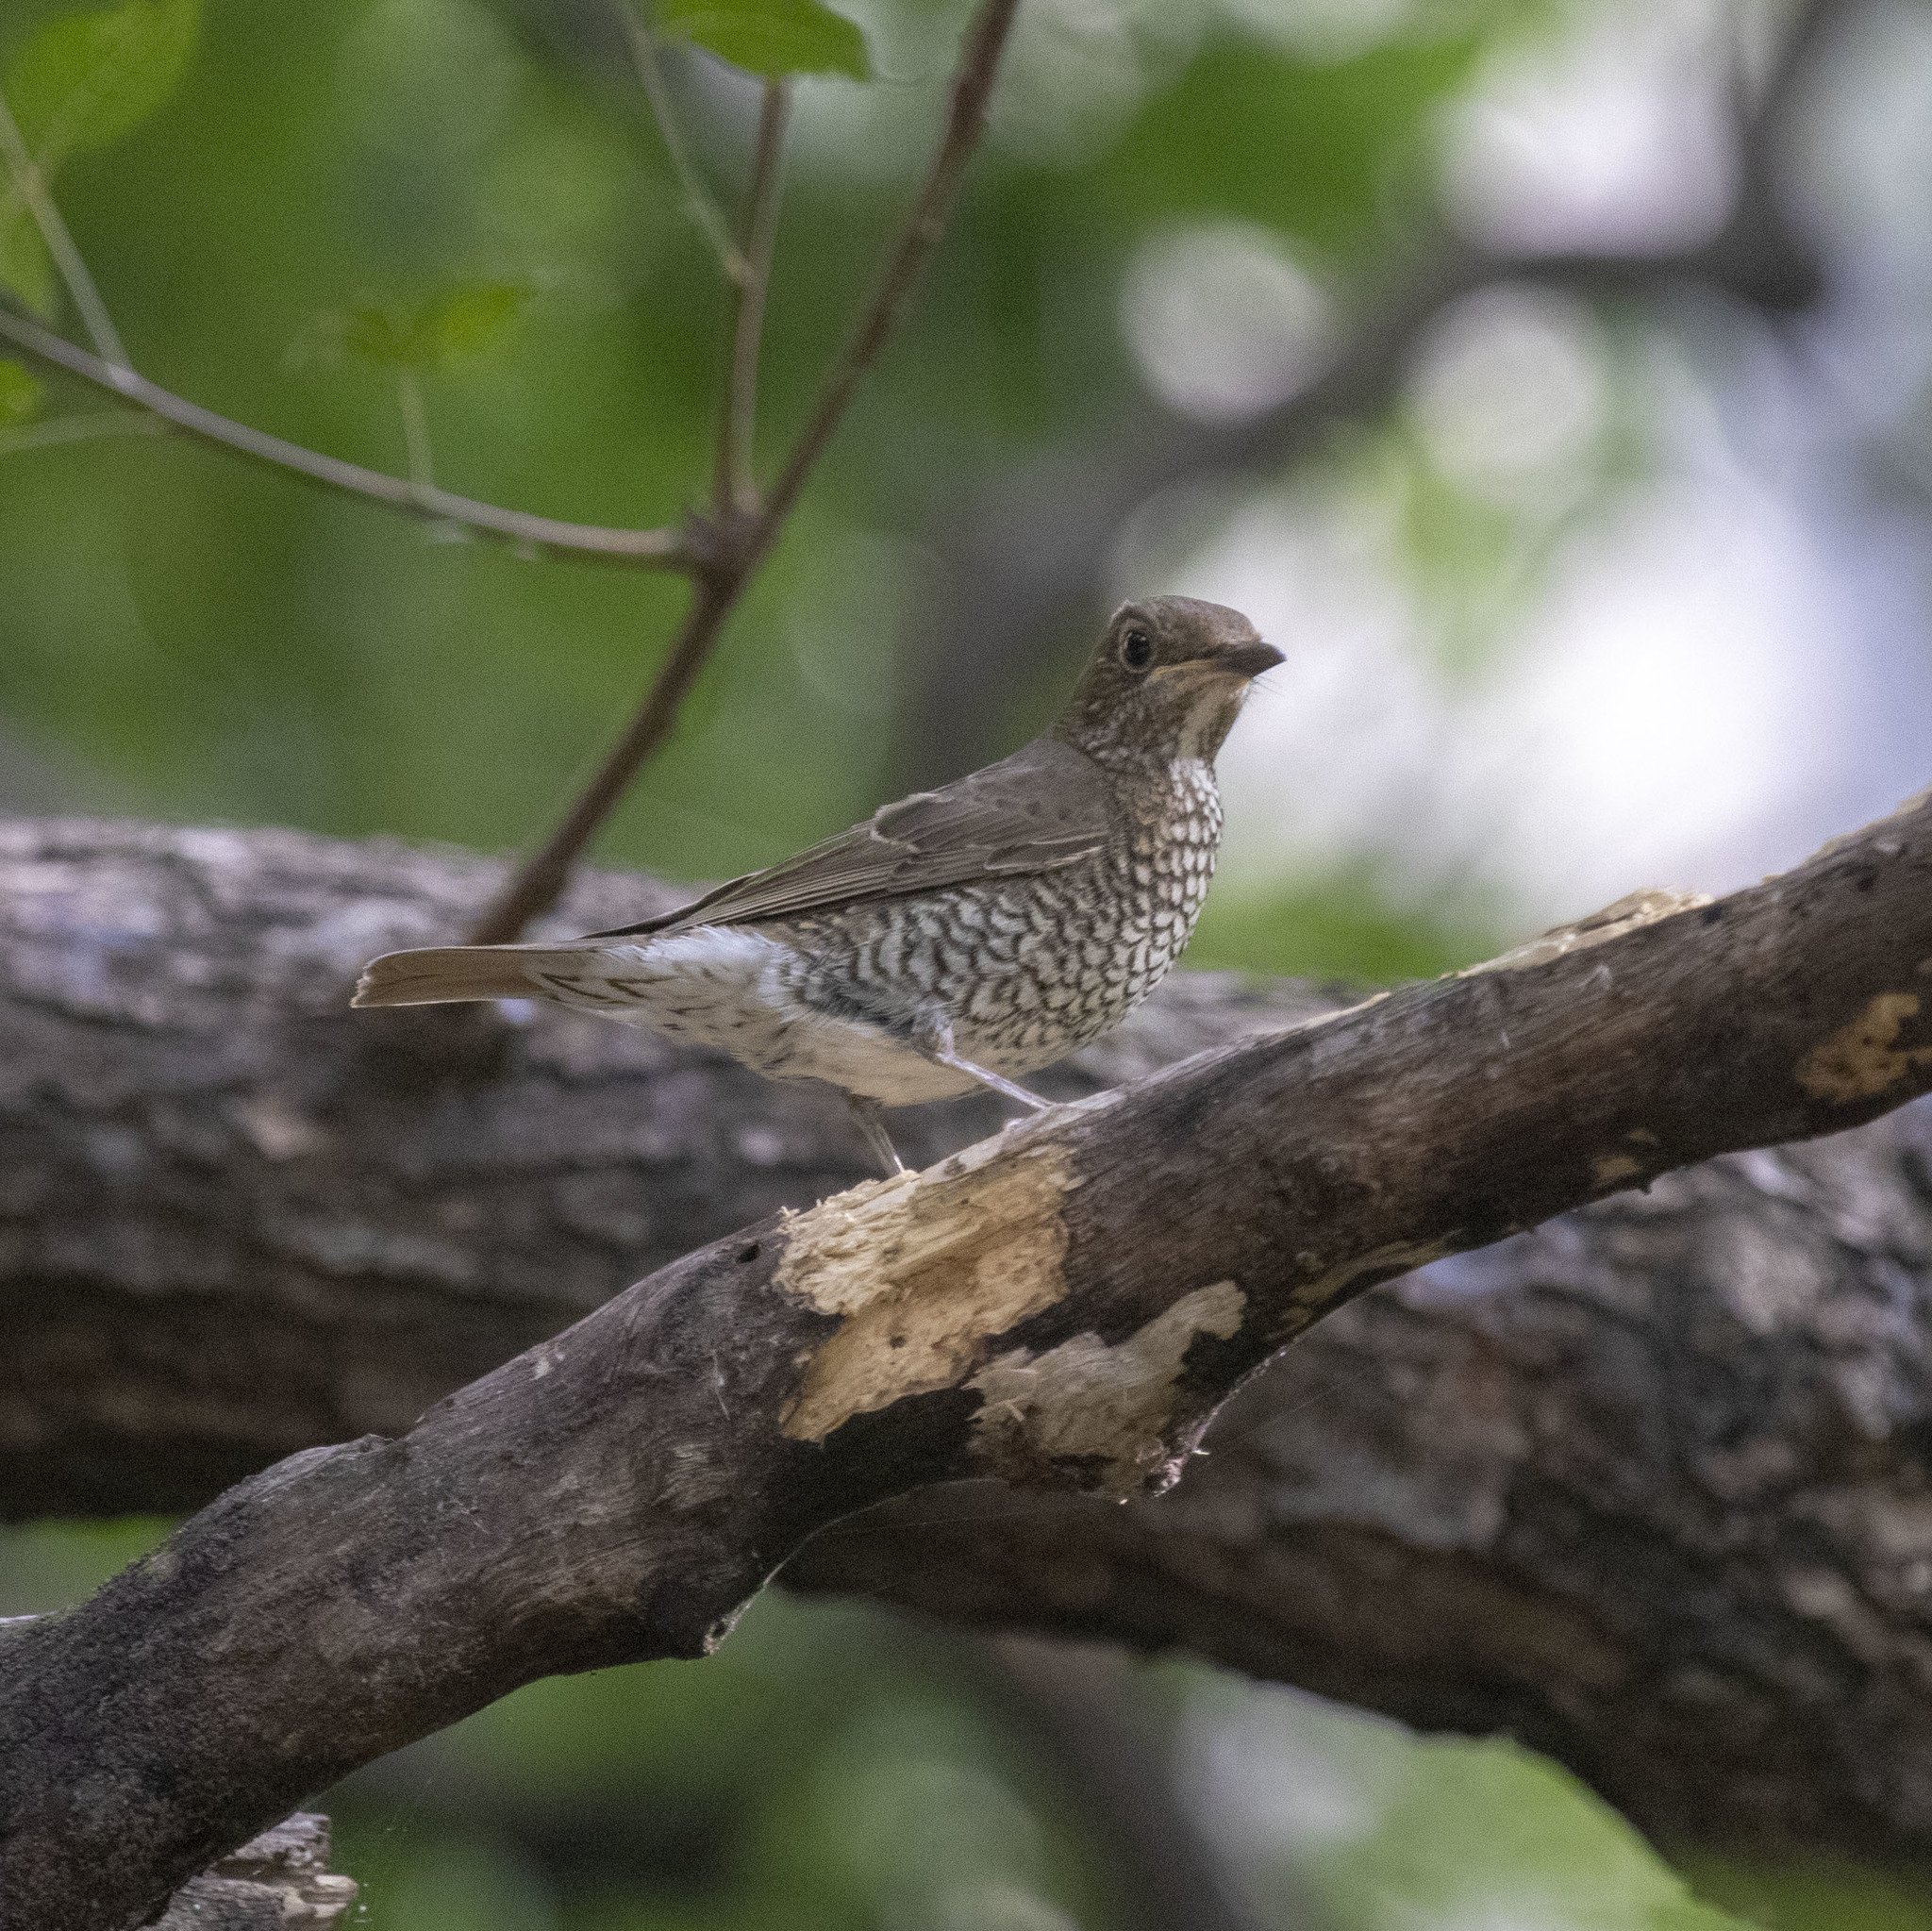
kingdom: Animalia
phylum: Chordata
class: Aves
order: Passeriformes
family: Muscicapidae
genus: Monticola
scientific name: Monticola cinclorhynchus
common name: Blue-capped rock thrush
